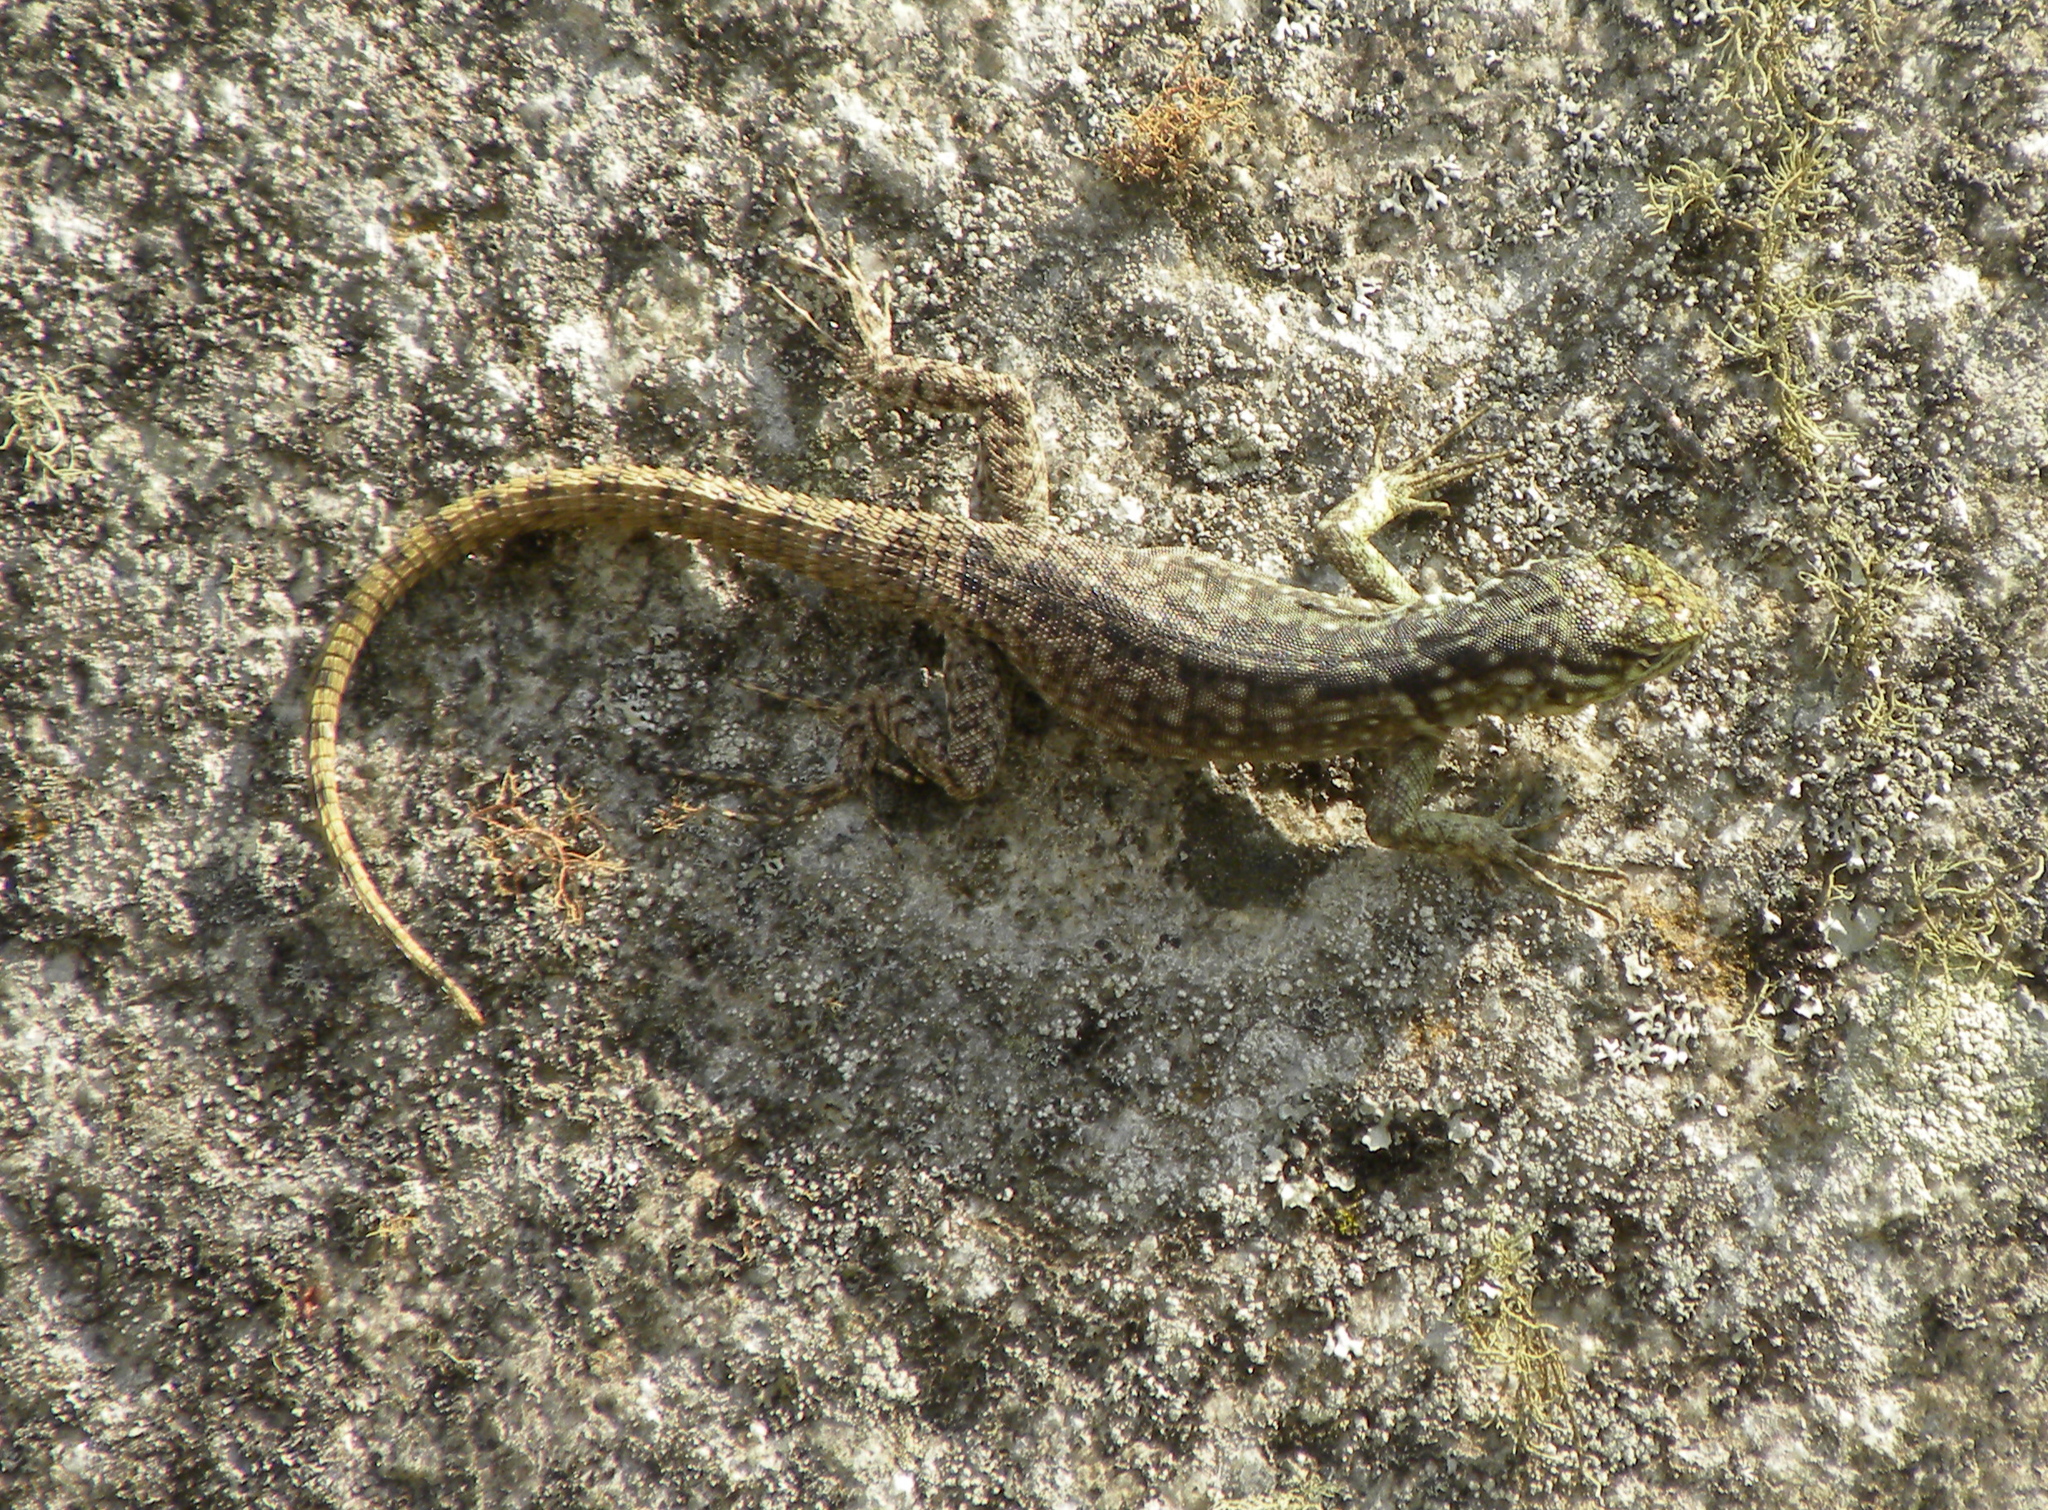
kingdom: Animalia
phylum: Chordata
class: Squamata
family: Tropiduridae
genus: Stenocercus
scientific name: Stenocercus crassicaudatus
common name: Spiny whorltail iguana
